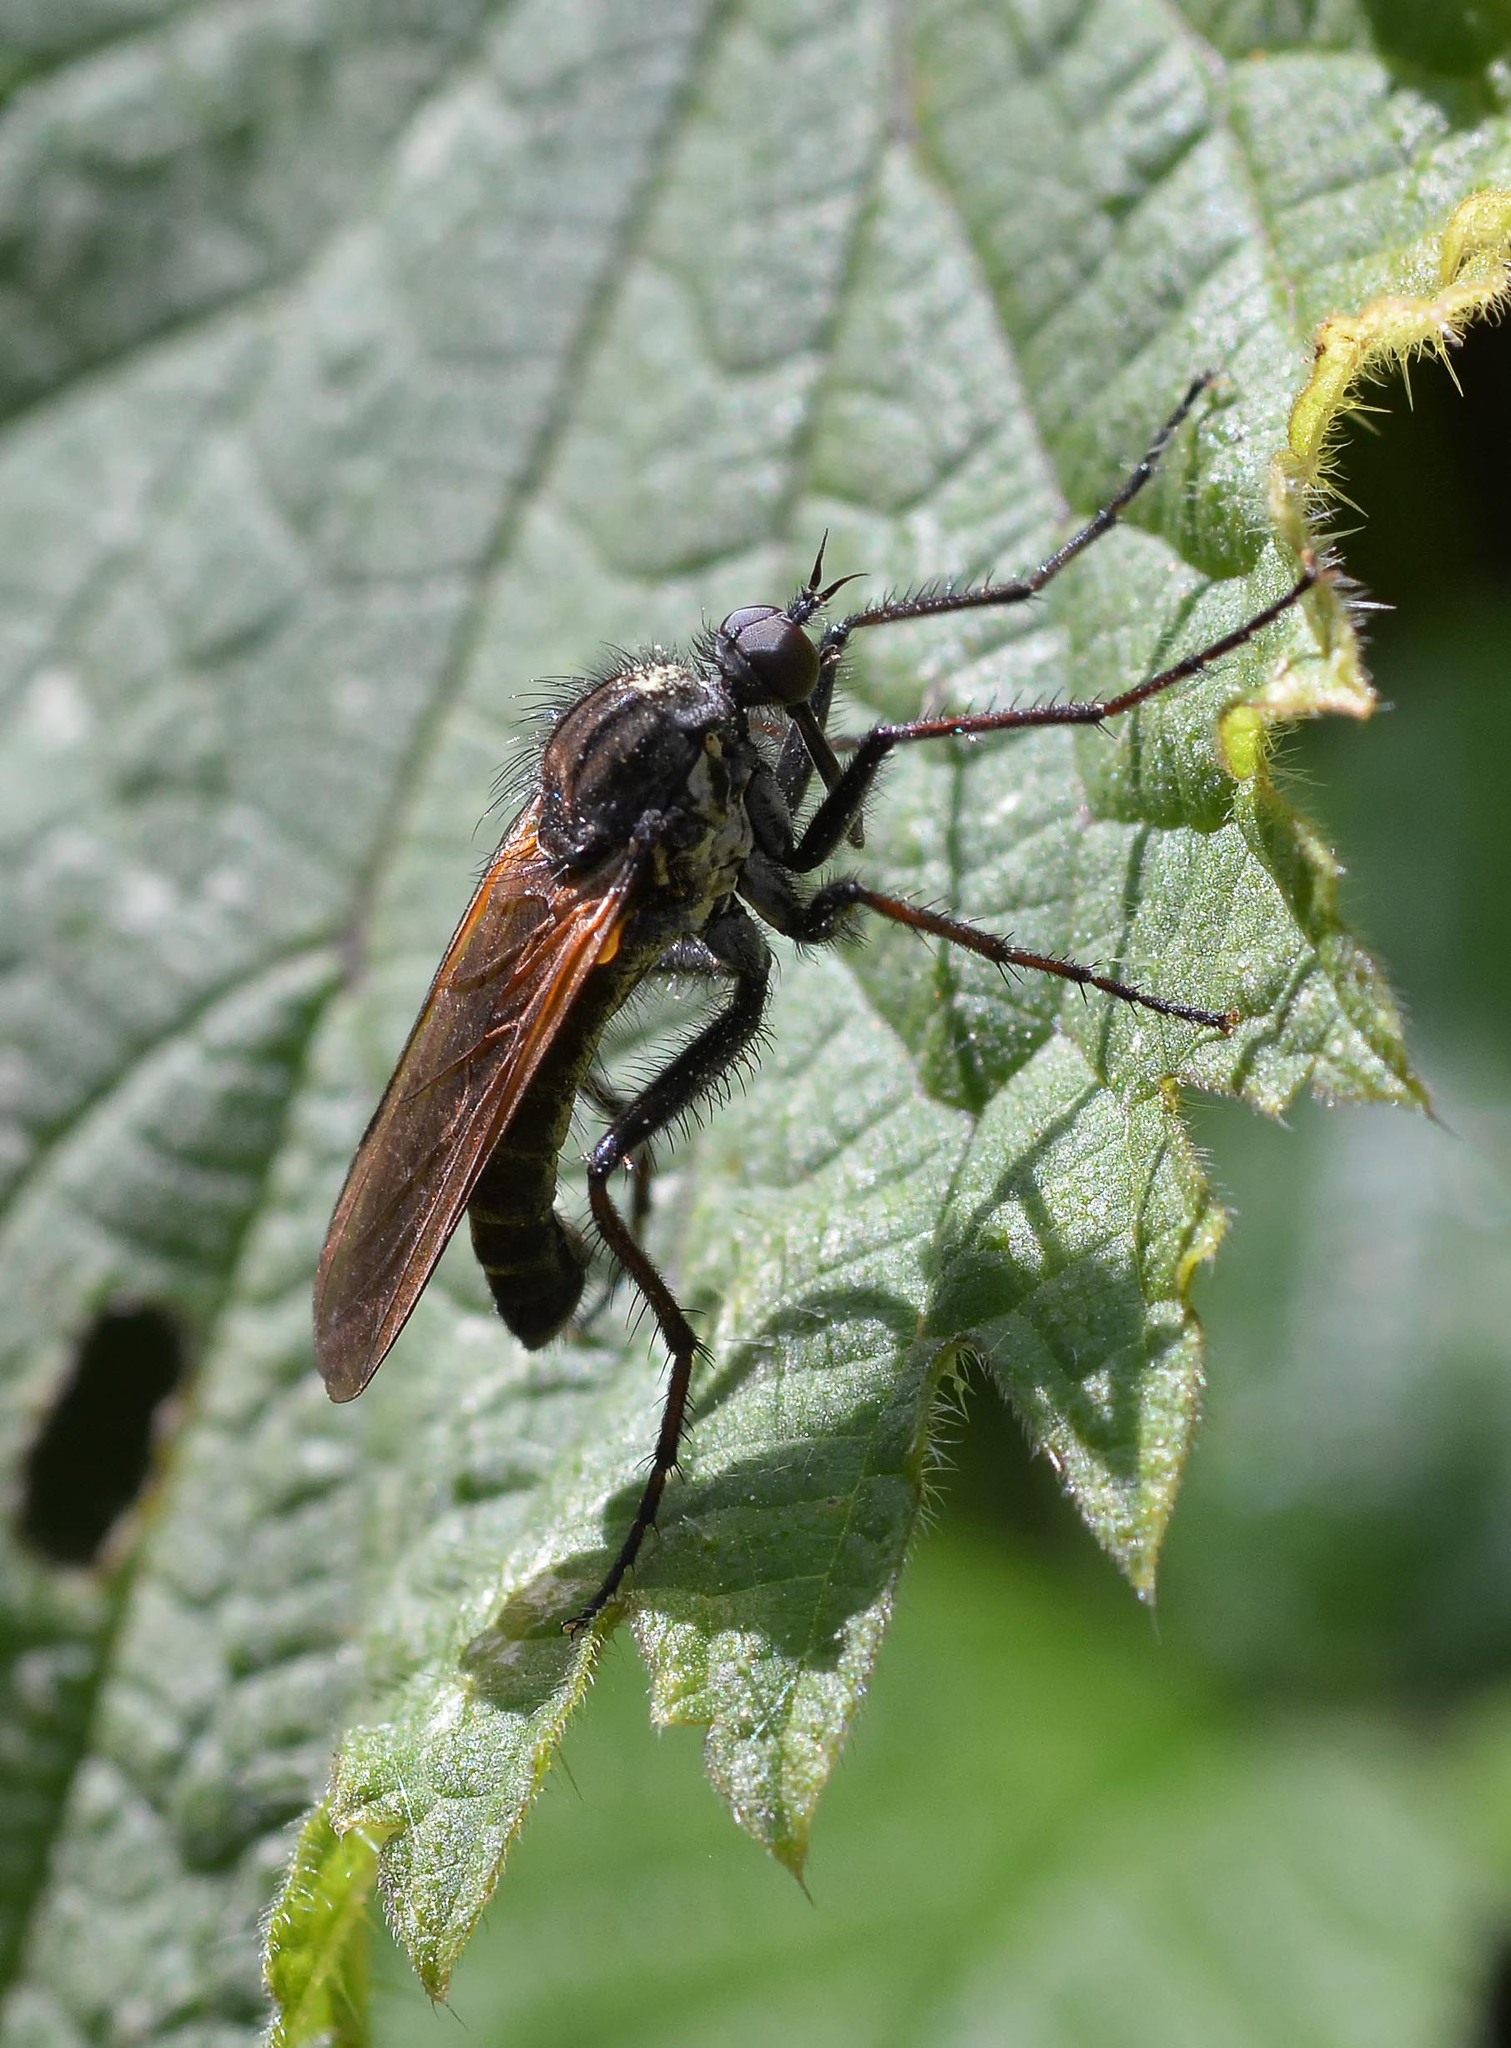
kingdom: Animalia
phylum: Arthropoda
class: Insecta
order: Diptera
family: Empididae
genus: Empis
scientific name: Empis tessellata
